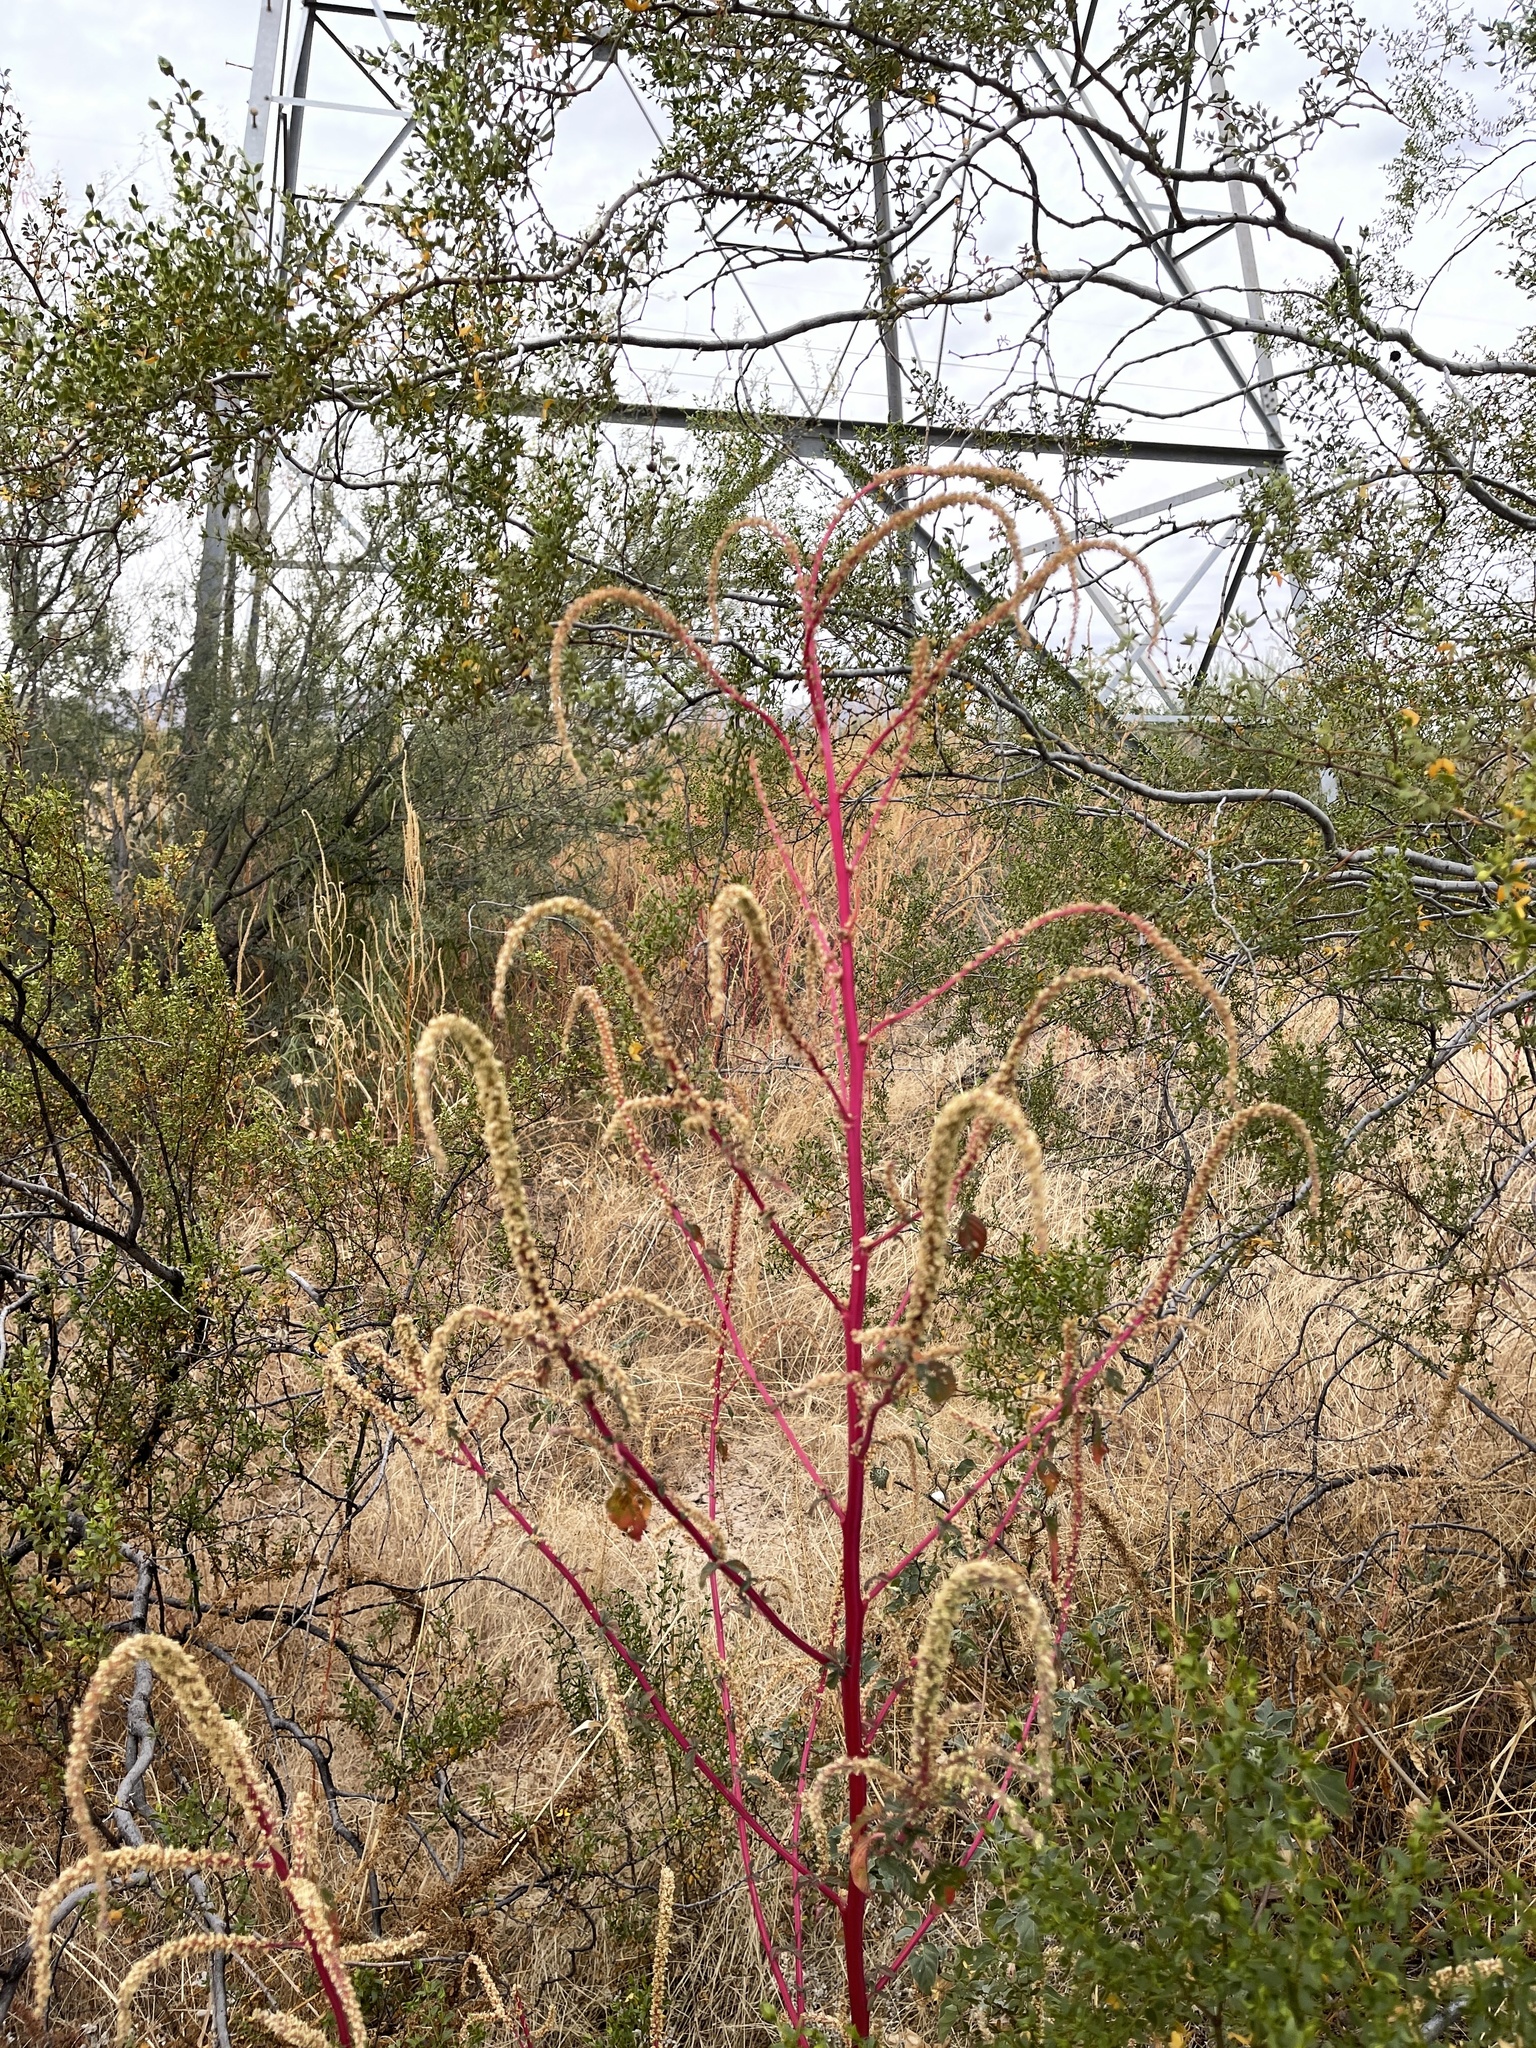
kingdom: Plantae
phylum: Tracheophyta
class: Magnoliopsida
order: Caryophyllales
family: Amaranthaceae
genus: Amaranthus
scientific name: Amaranthus palmeri
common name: Dioecious amaranth
